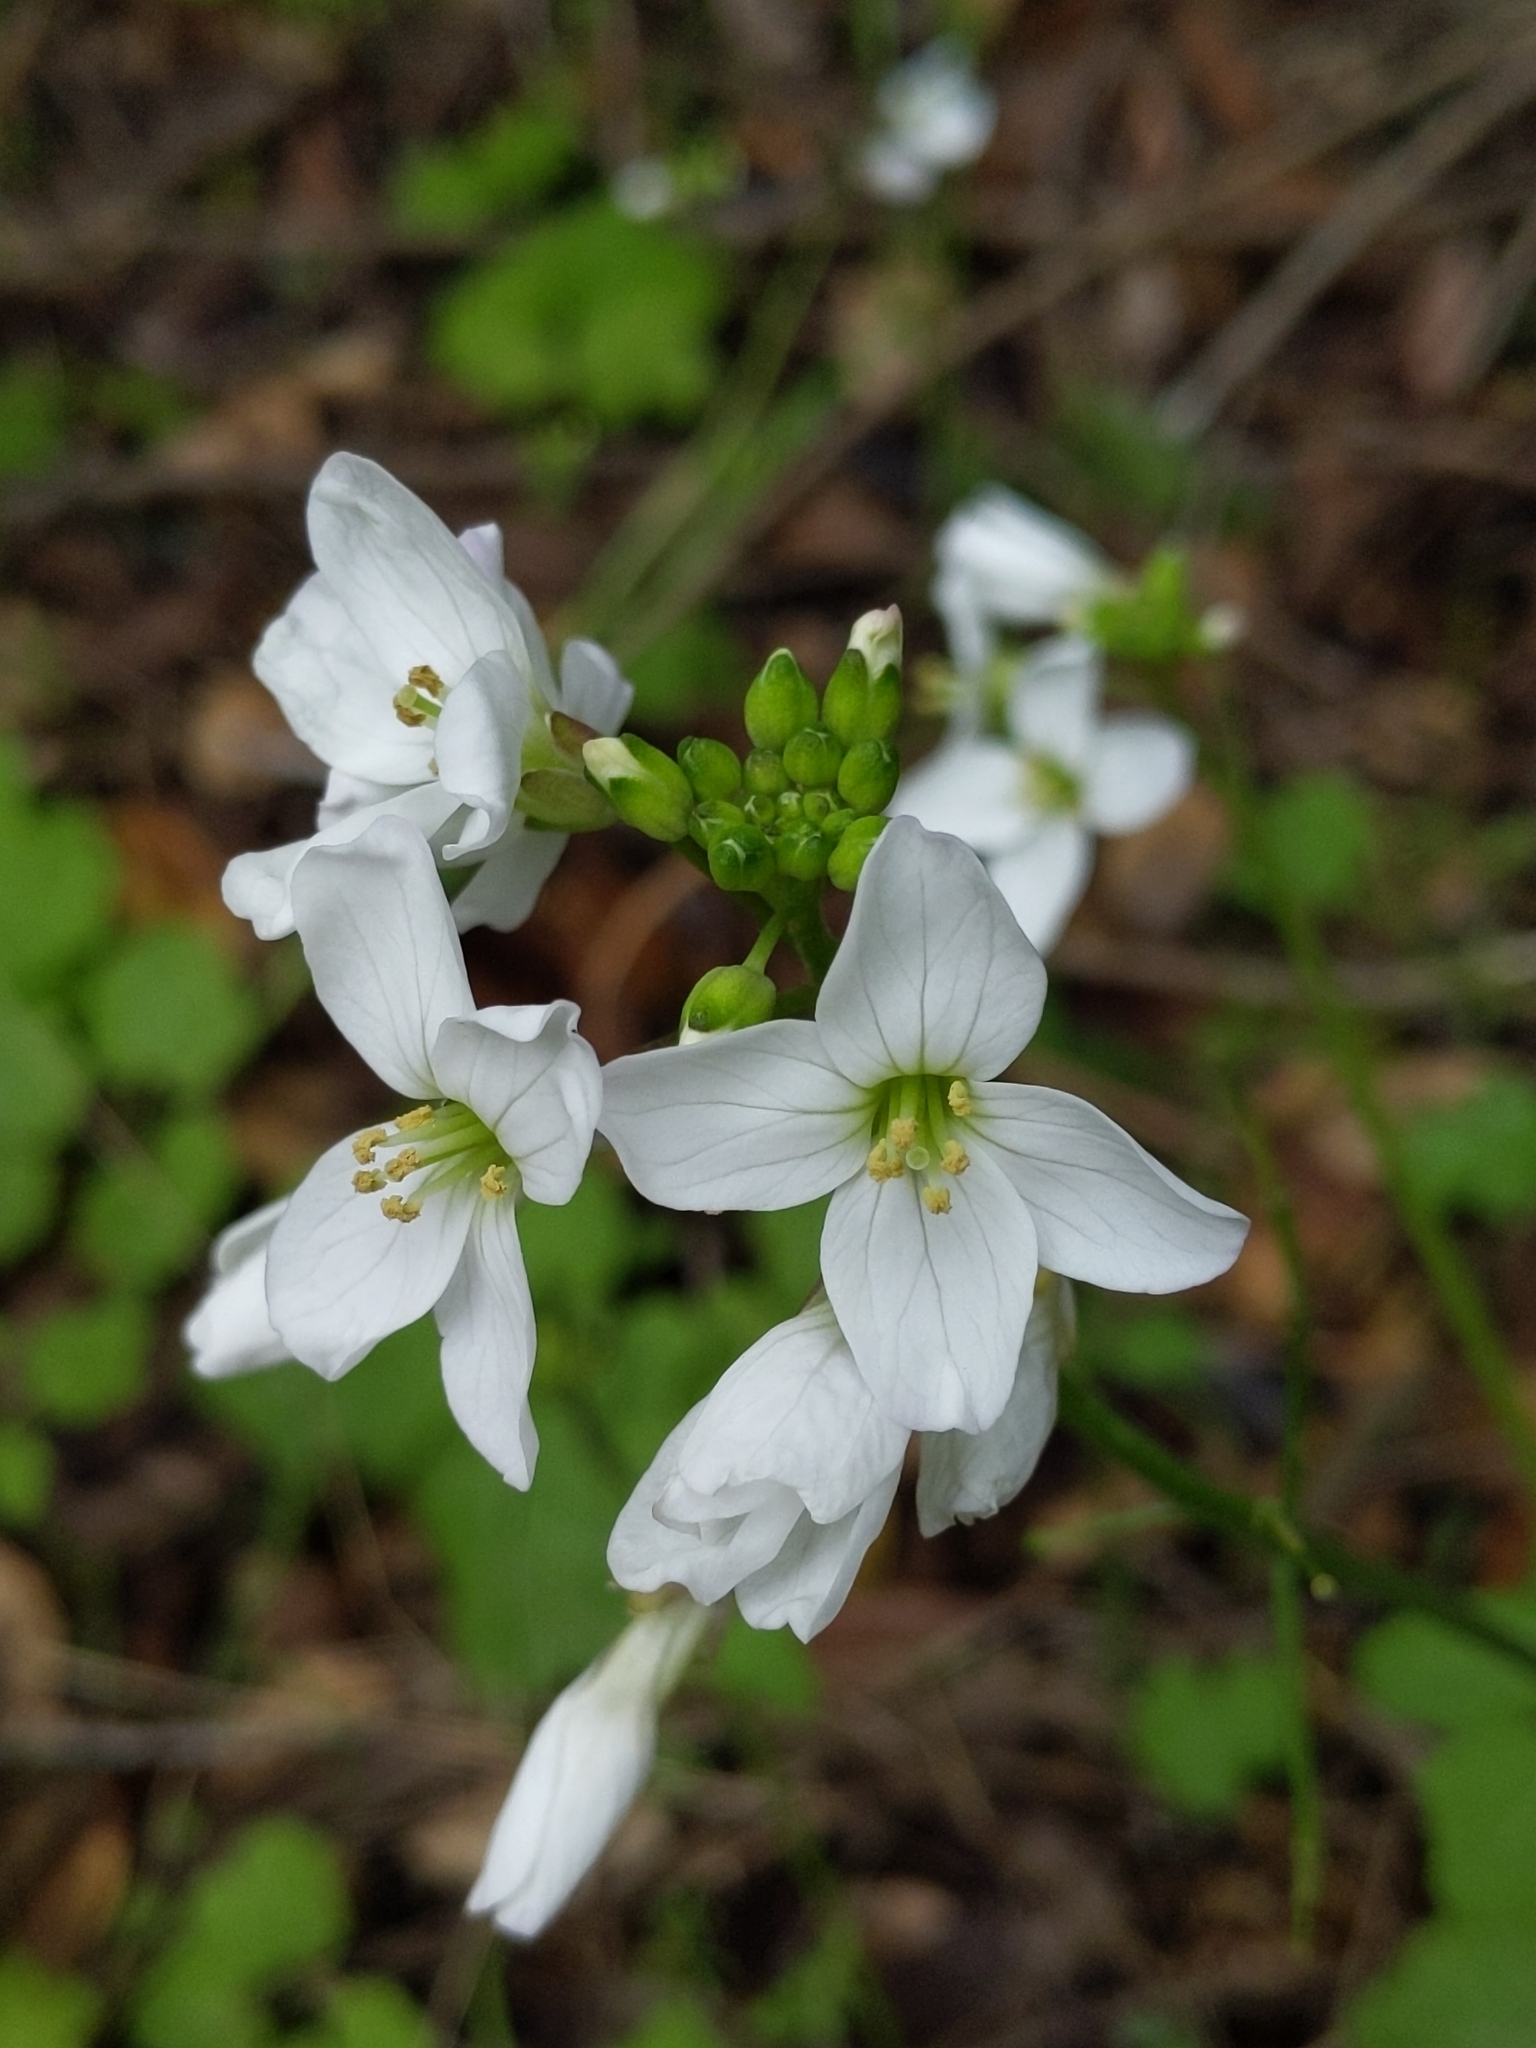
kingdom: Plantae
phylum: Tracheophyta
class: Magnoliopsida
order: Brassicales
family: Brassicaceae
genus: Cardamine
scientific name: Cardamine californica
